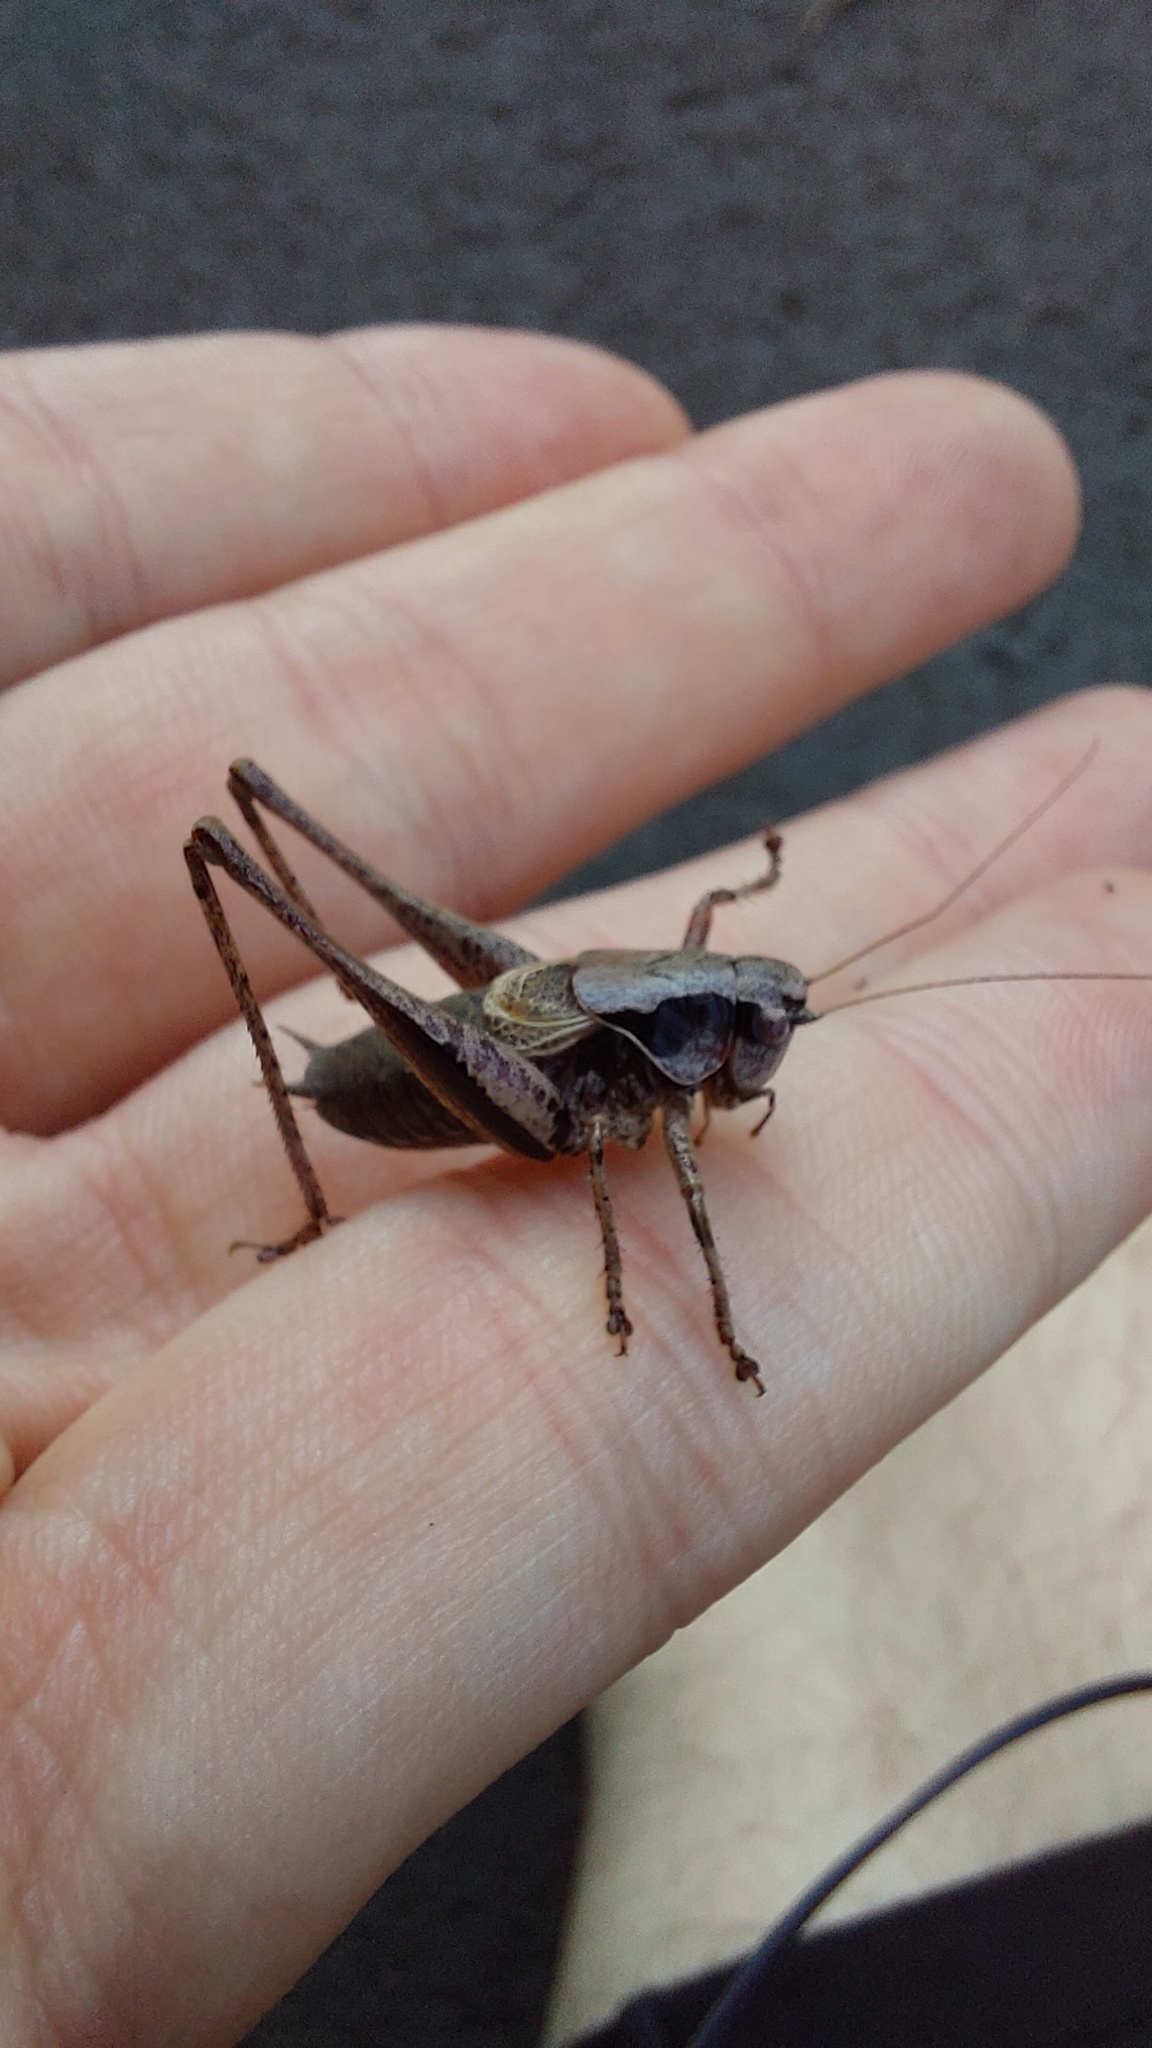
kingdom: Animalia
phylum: Arthropoda
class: Insecta
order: Orthoptera
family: Tettigoniidae
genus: Pholidoptera
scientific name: Pholidoptera griseoaptera
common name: Dark bush-cricket
